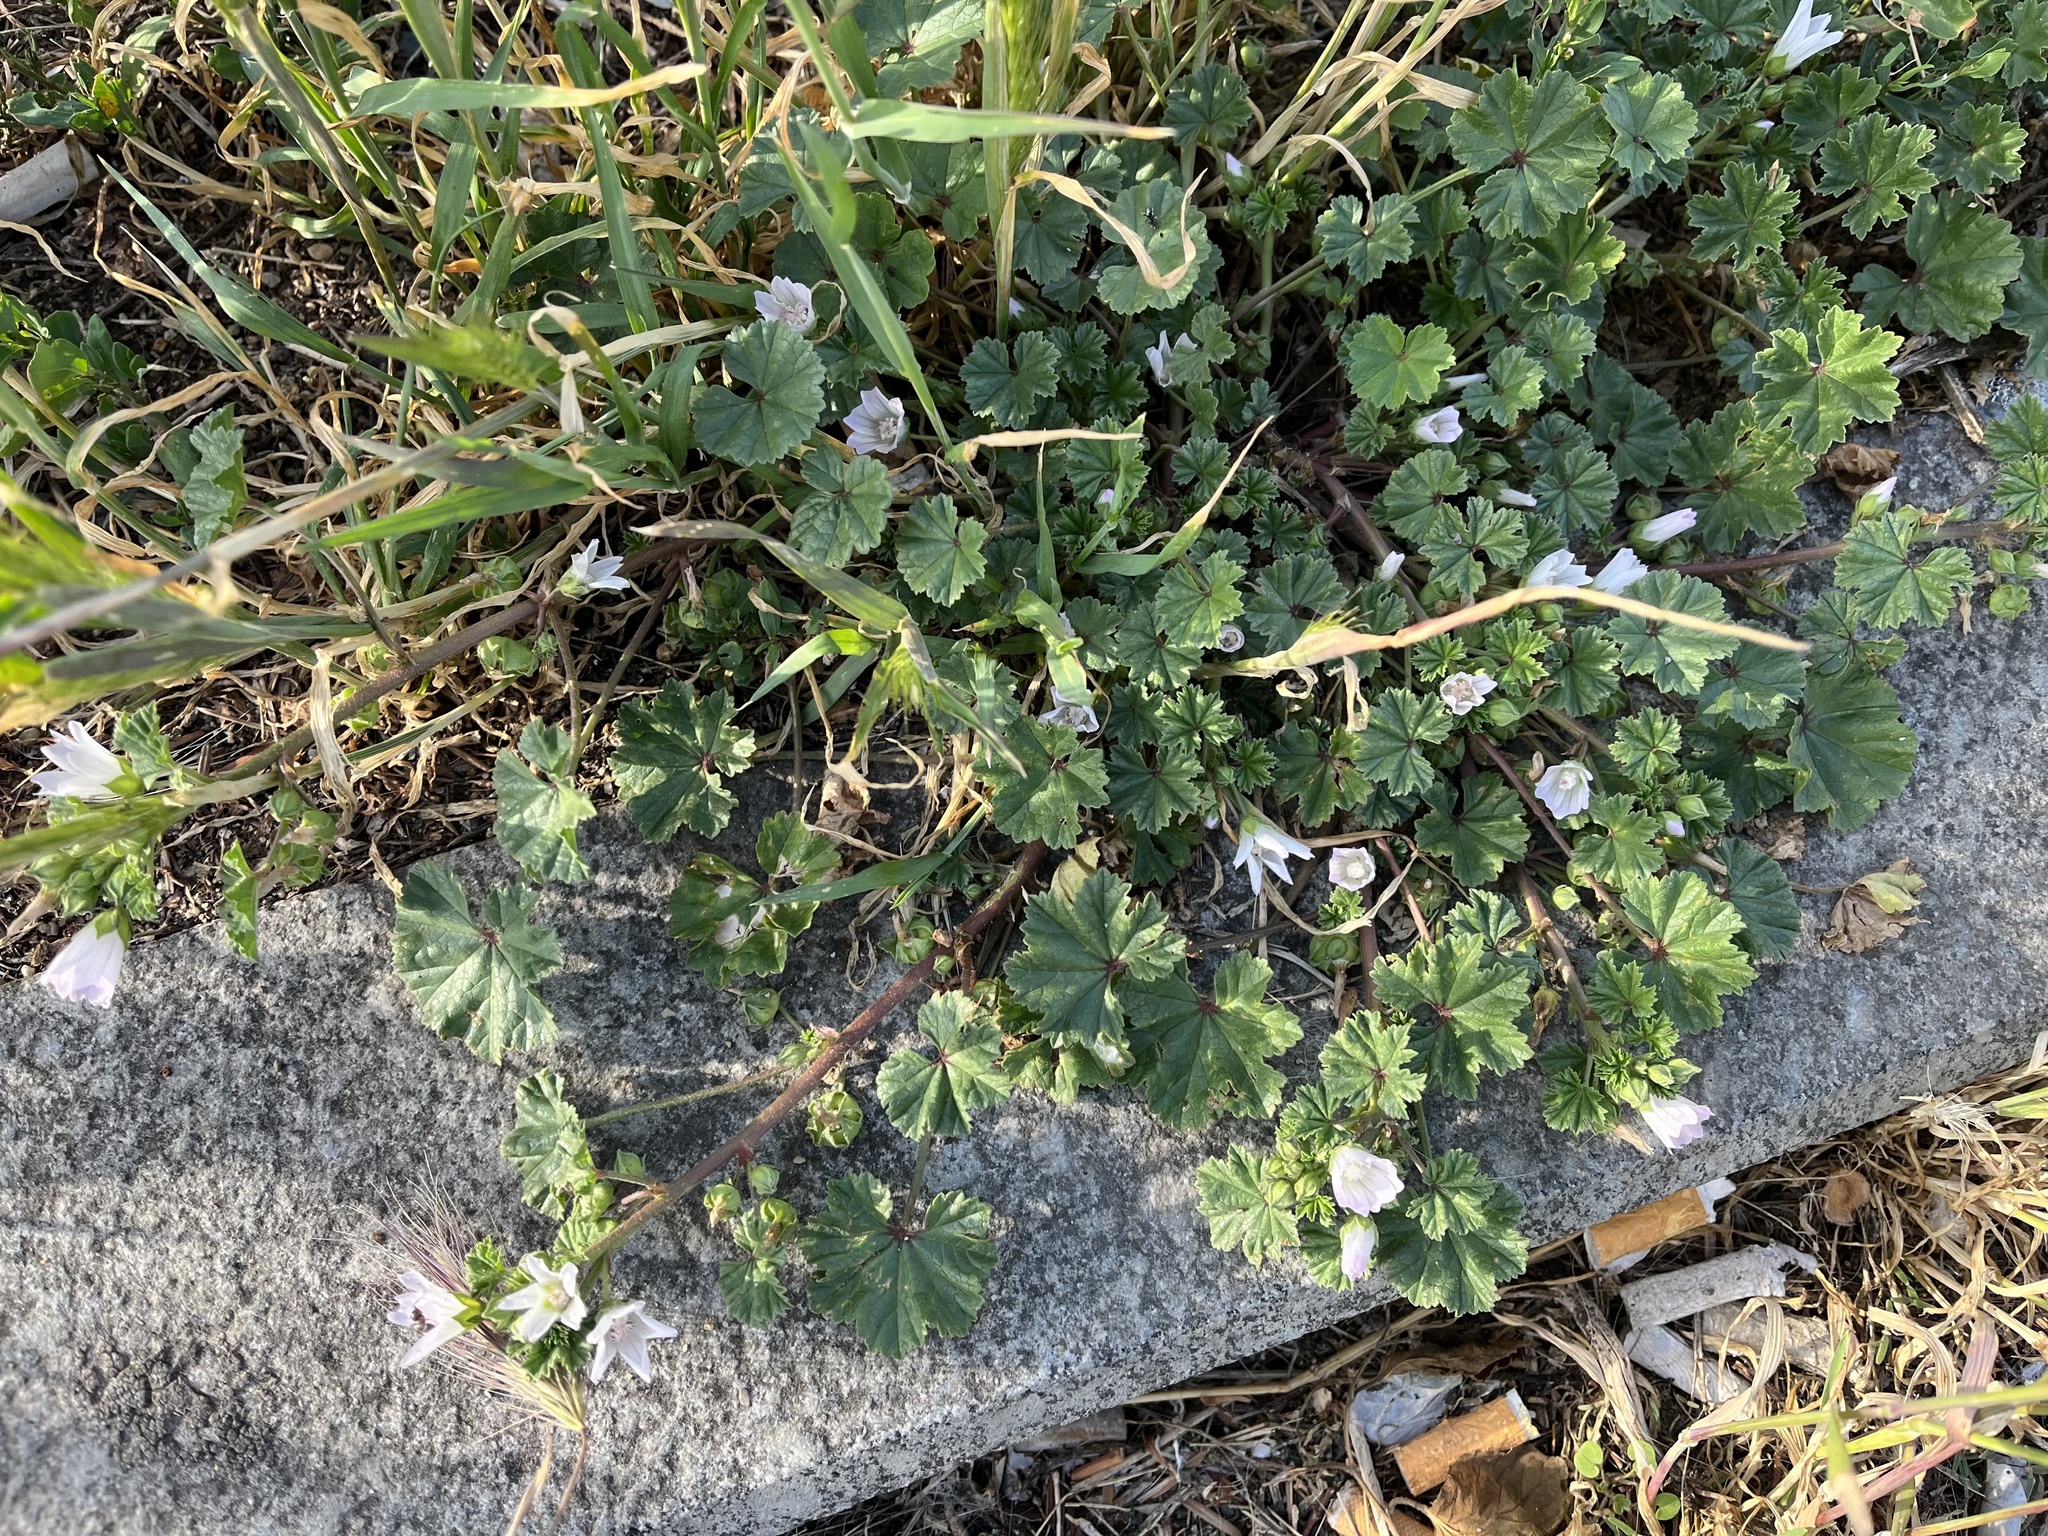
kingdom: Plantae
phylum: Tracheophyta
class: Magnoliopsida
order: Malvales
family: Malvaceae
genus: Malva
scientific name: Malva neglecta
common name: Common mallow
